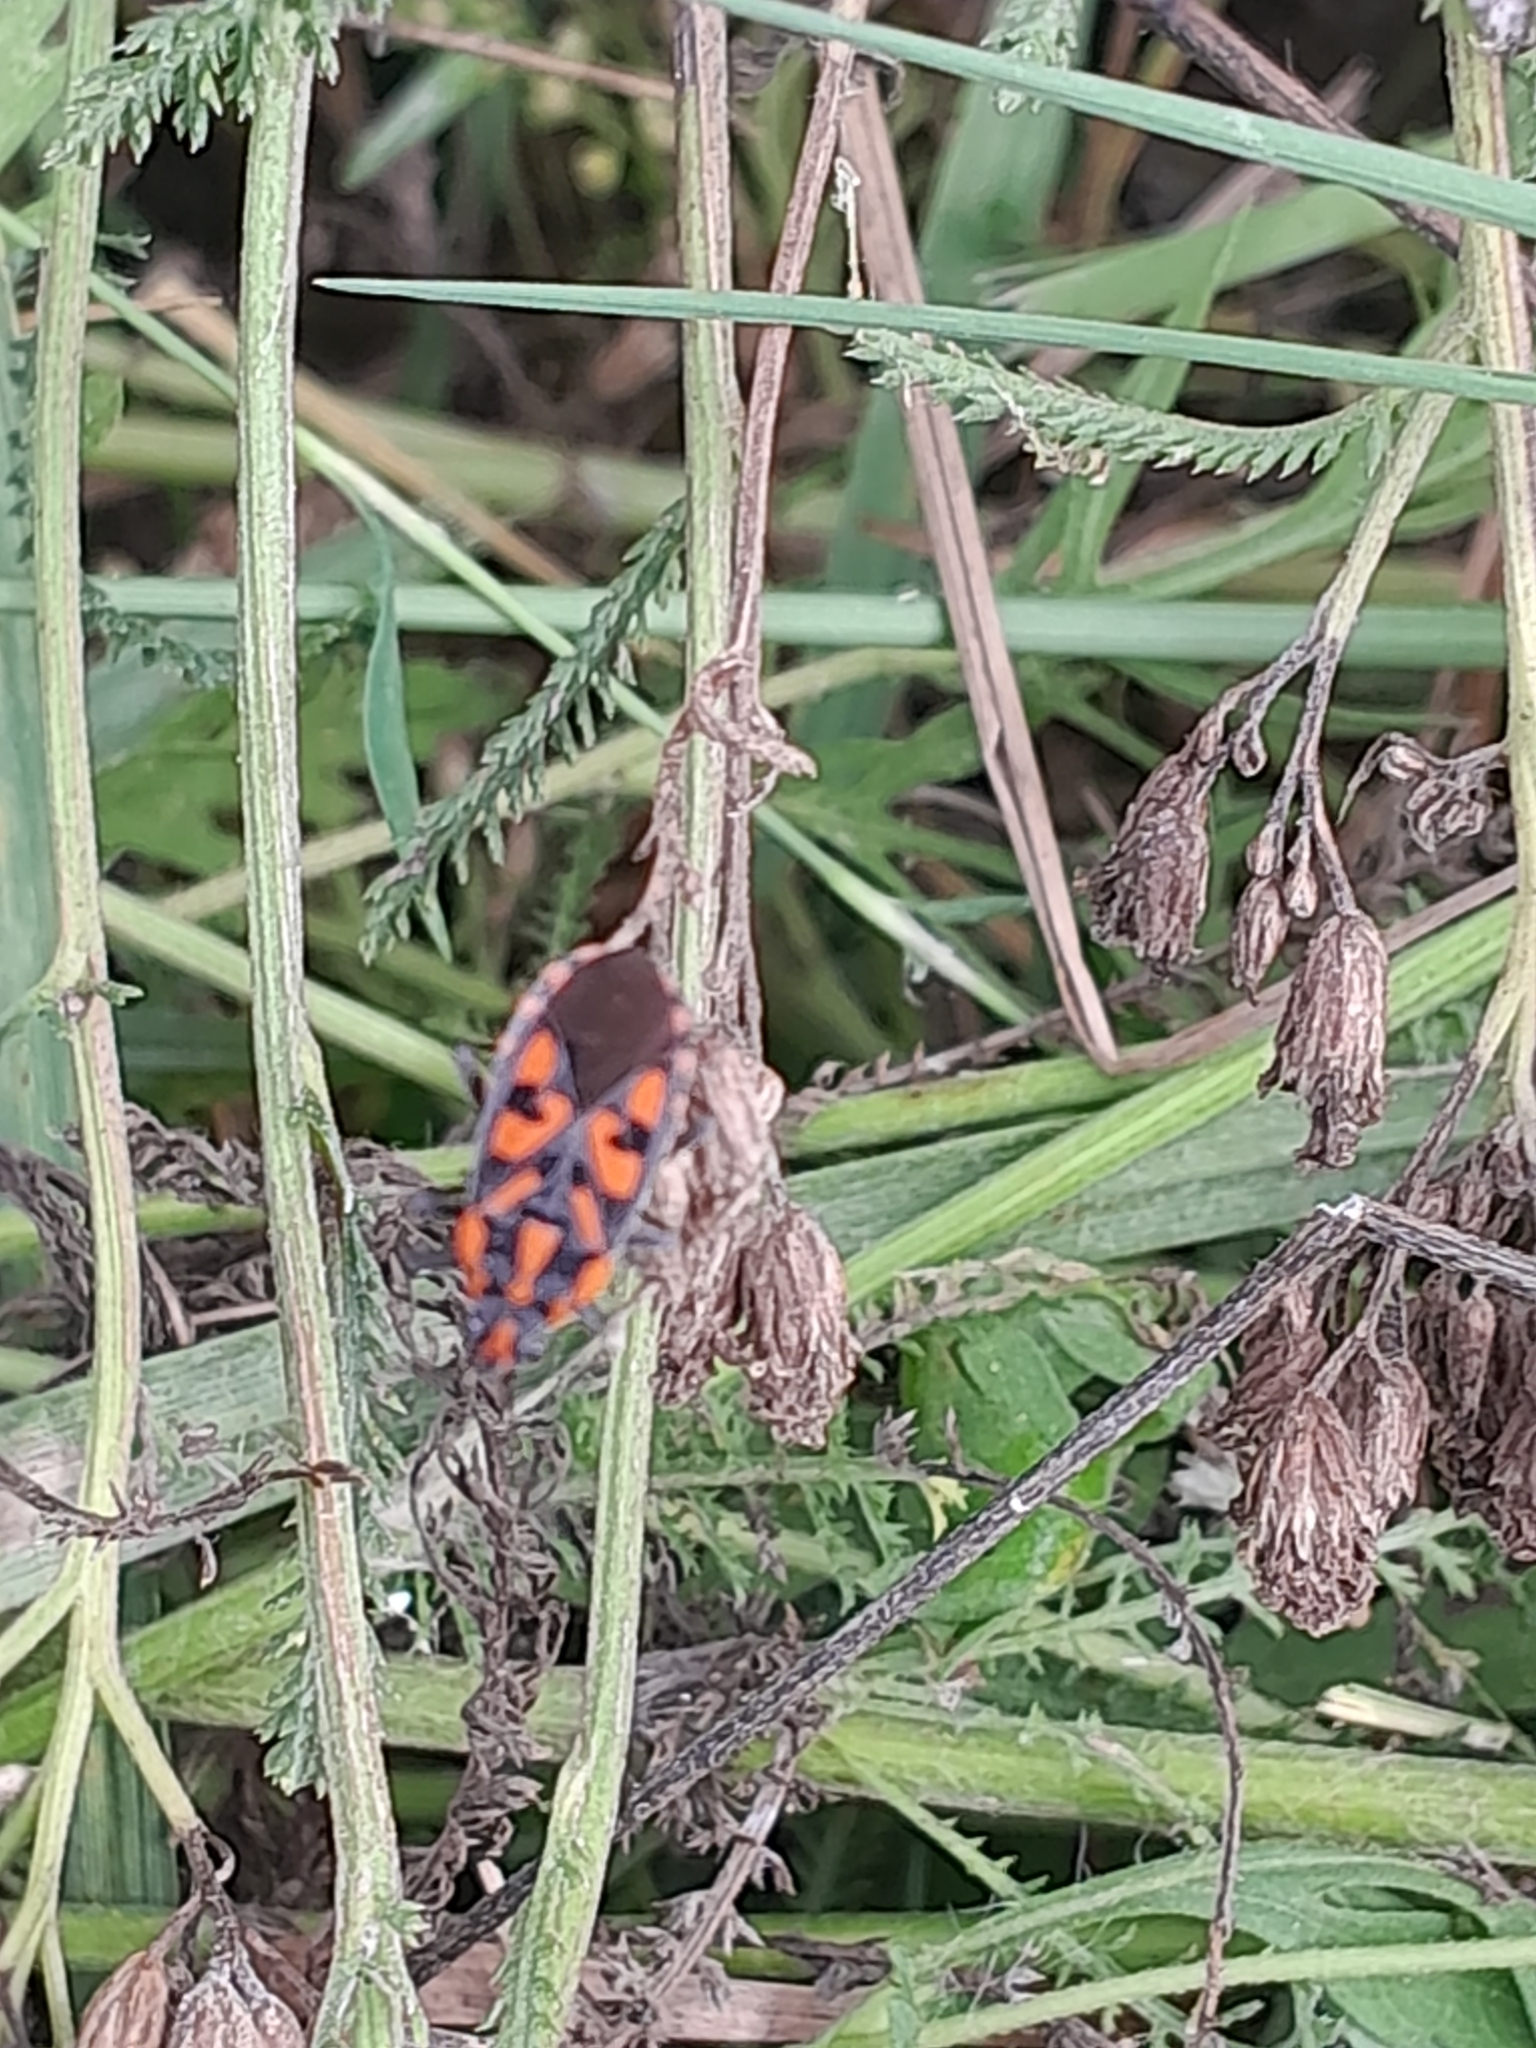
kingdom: Animalia
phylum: Arthropoda
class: Insecta
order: Hemiptera
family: Lygaeidae
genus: Spilostethus
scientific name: Spilostethus saxatilis
